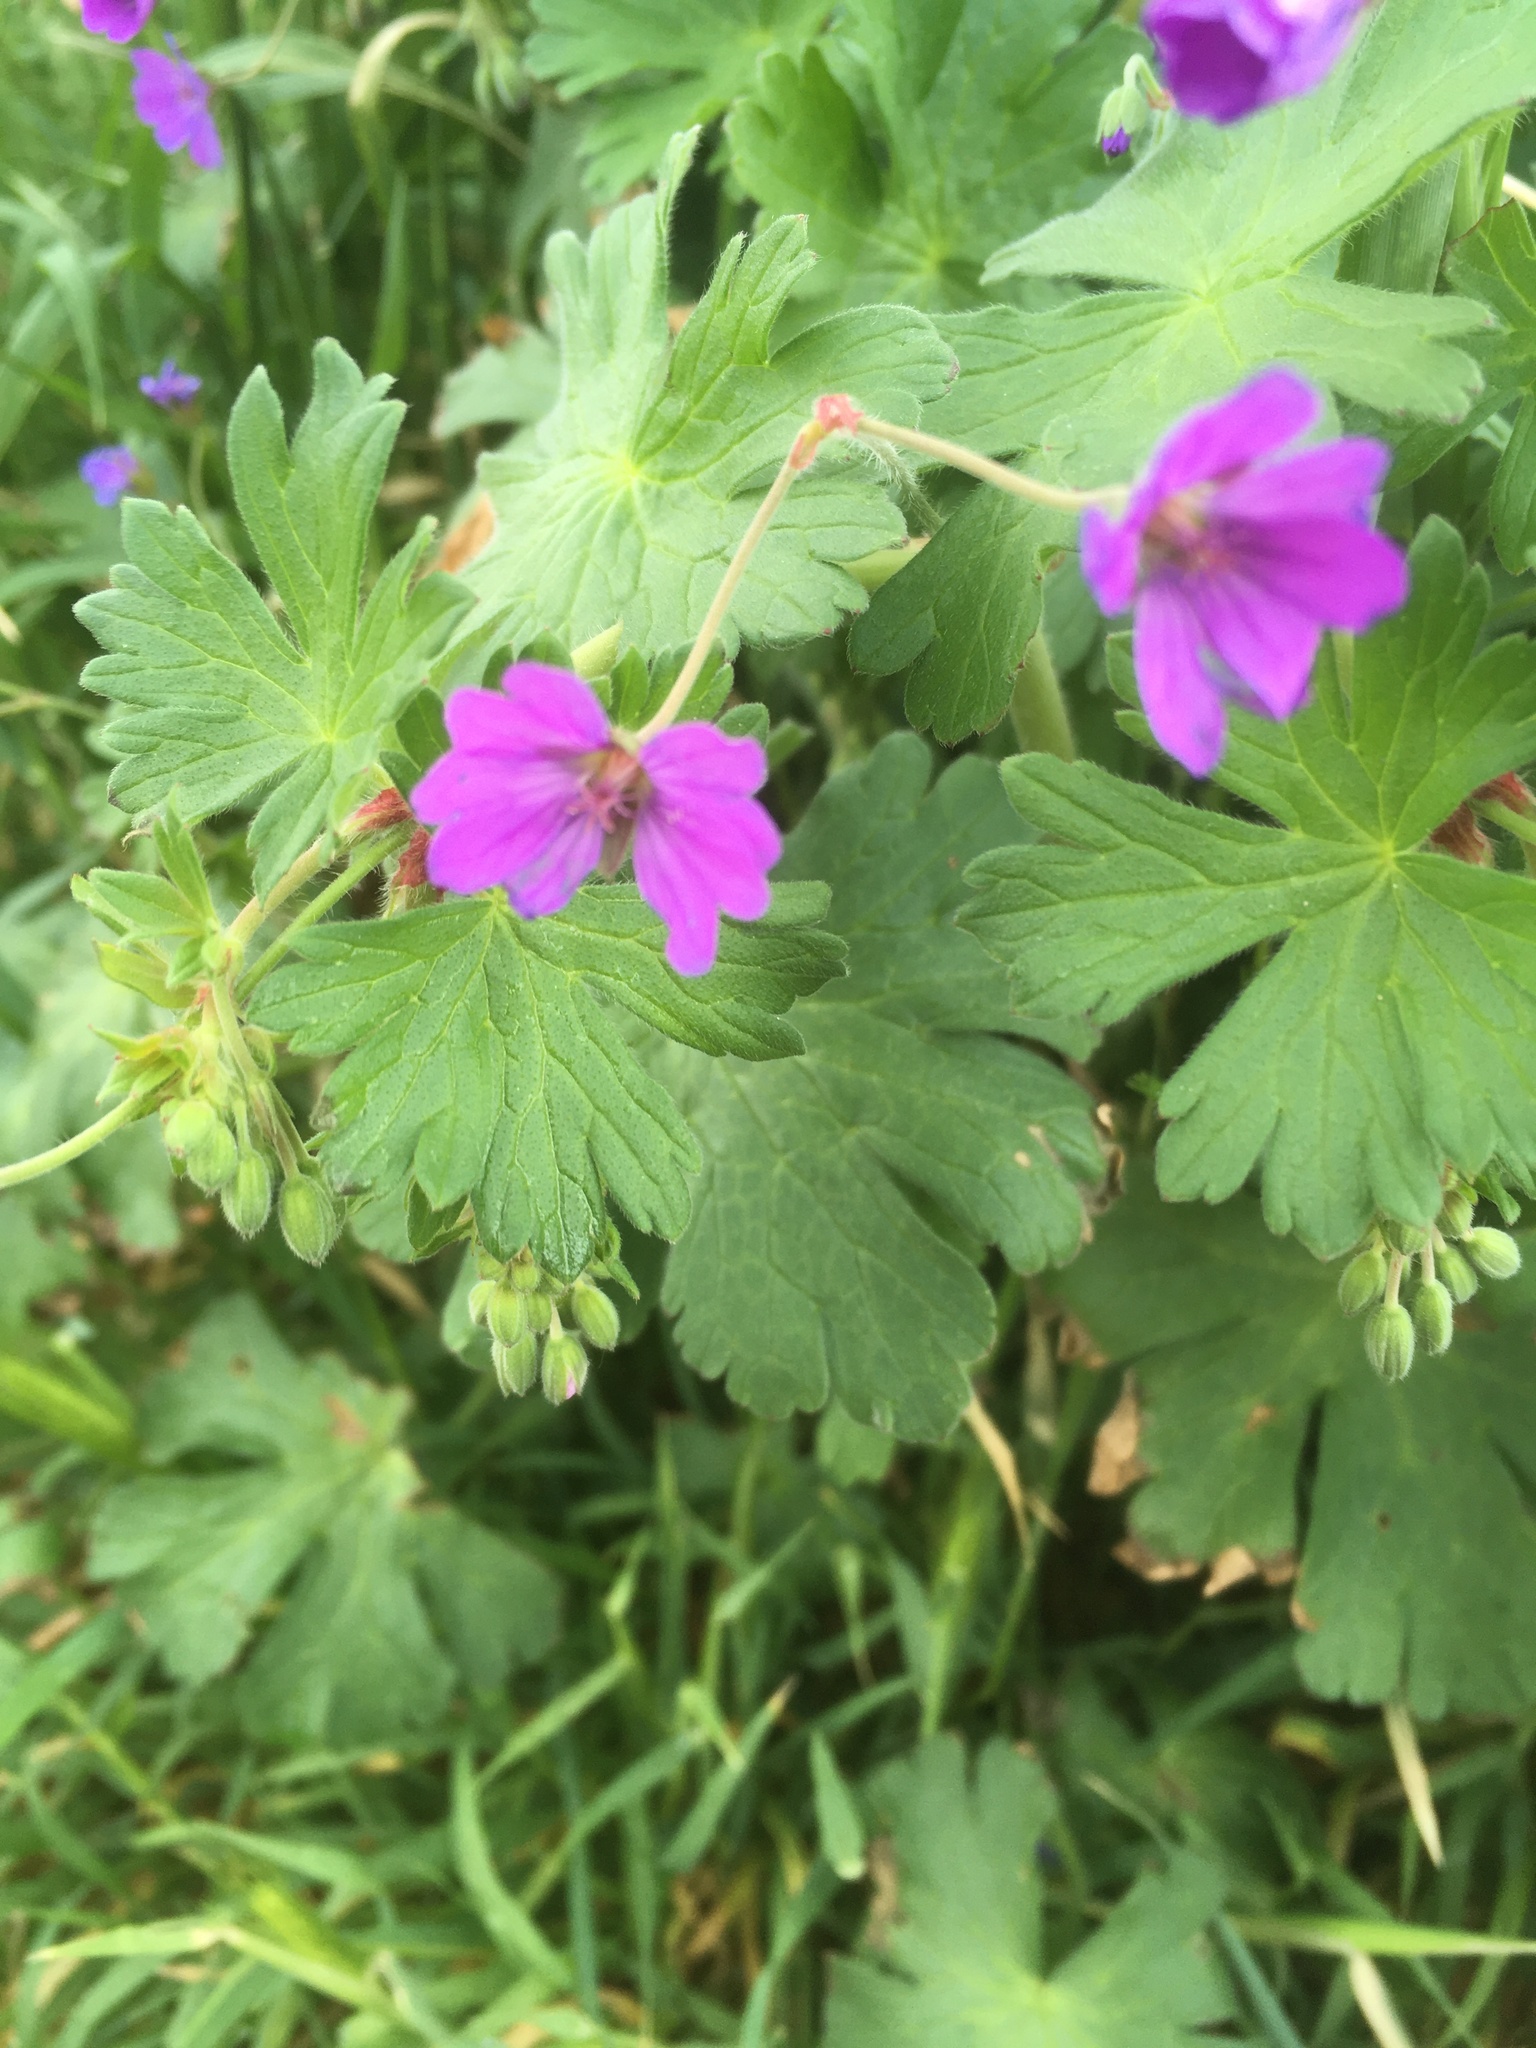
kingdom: Plantae
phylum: Tracheophyta
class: Magnoliopsida
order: Geraniales
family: Geraniaceae
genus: Geranium
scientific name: Geranium pyrenaicum
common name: Hedgerow crane's-bill
